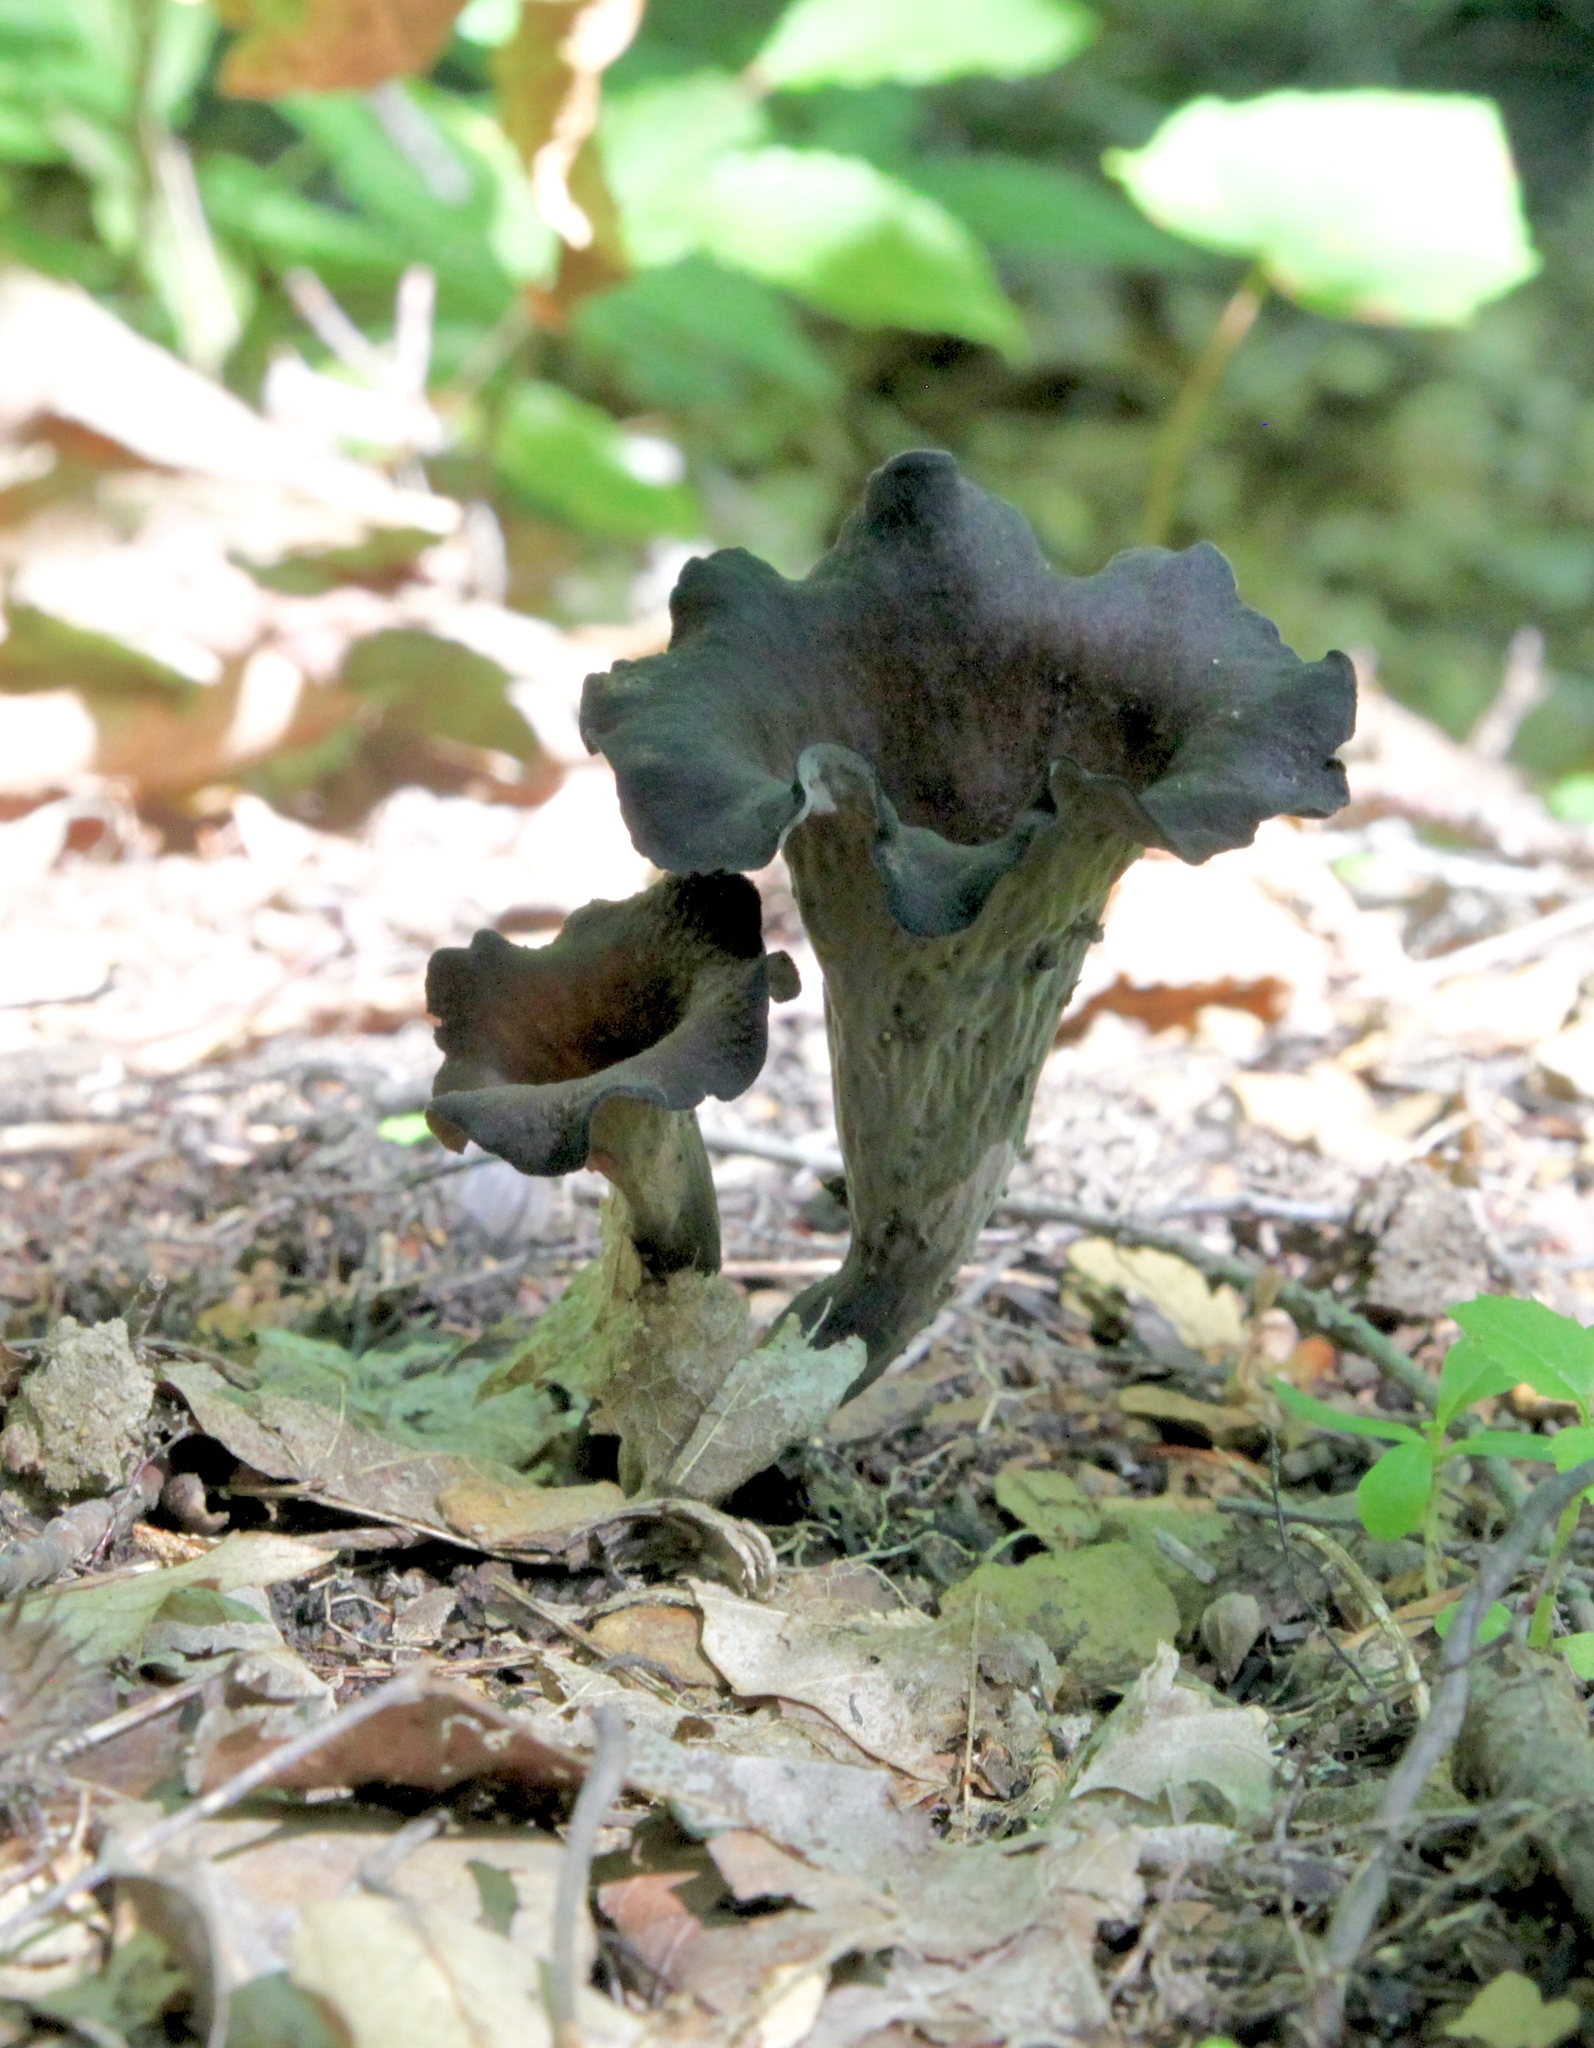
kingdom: Fungi
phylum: Basidiomycota
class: Agaricomycetes
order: Cantharellales
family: Hydnaceae
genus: Craterellus
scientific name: Craterellus cornucopioides
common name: Horn of plenty
